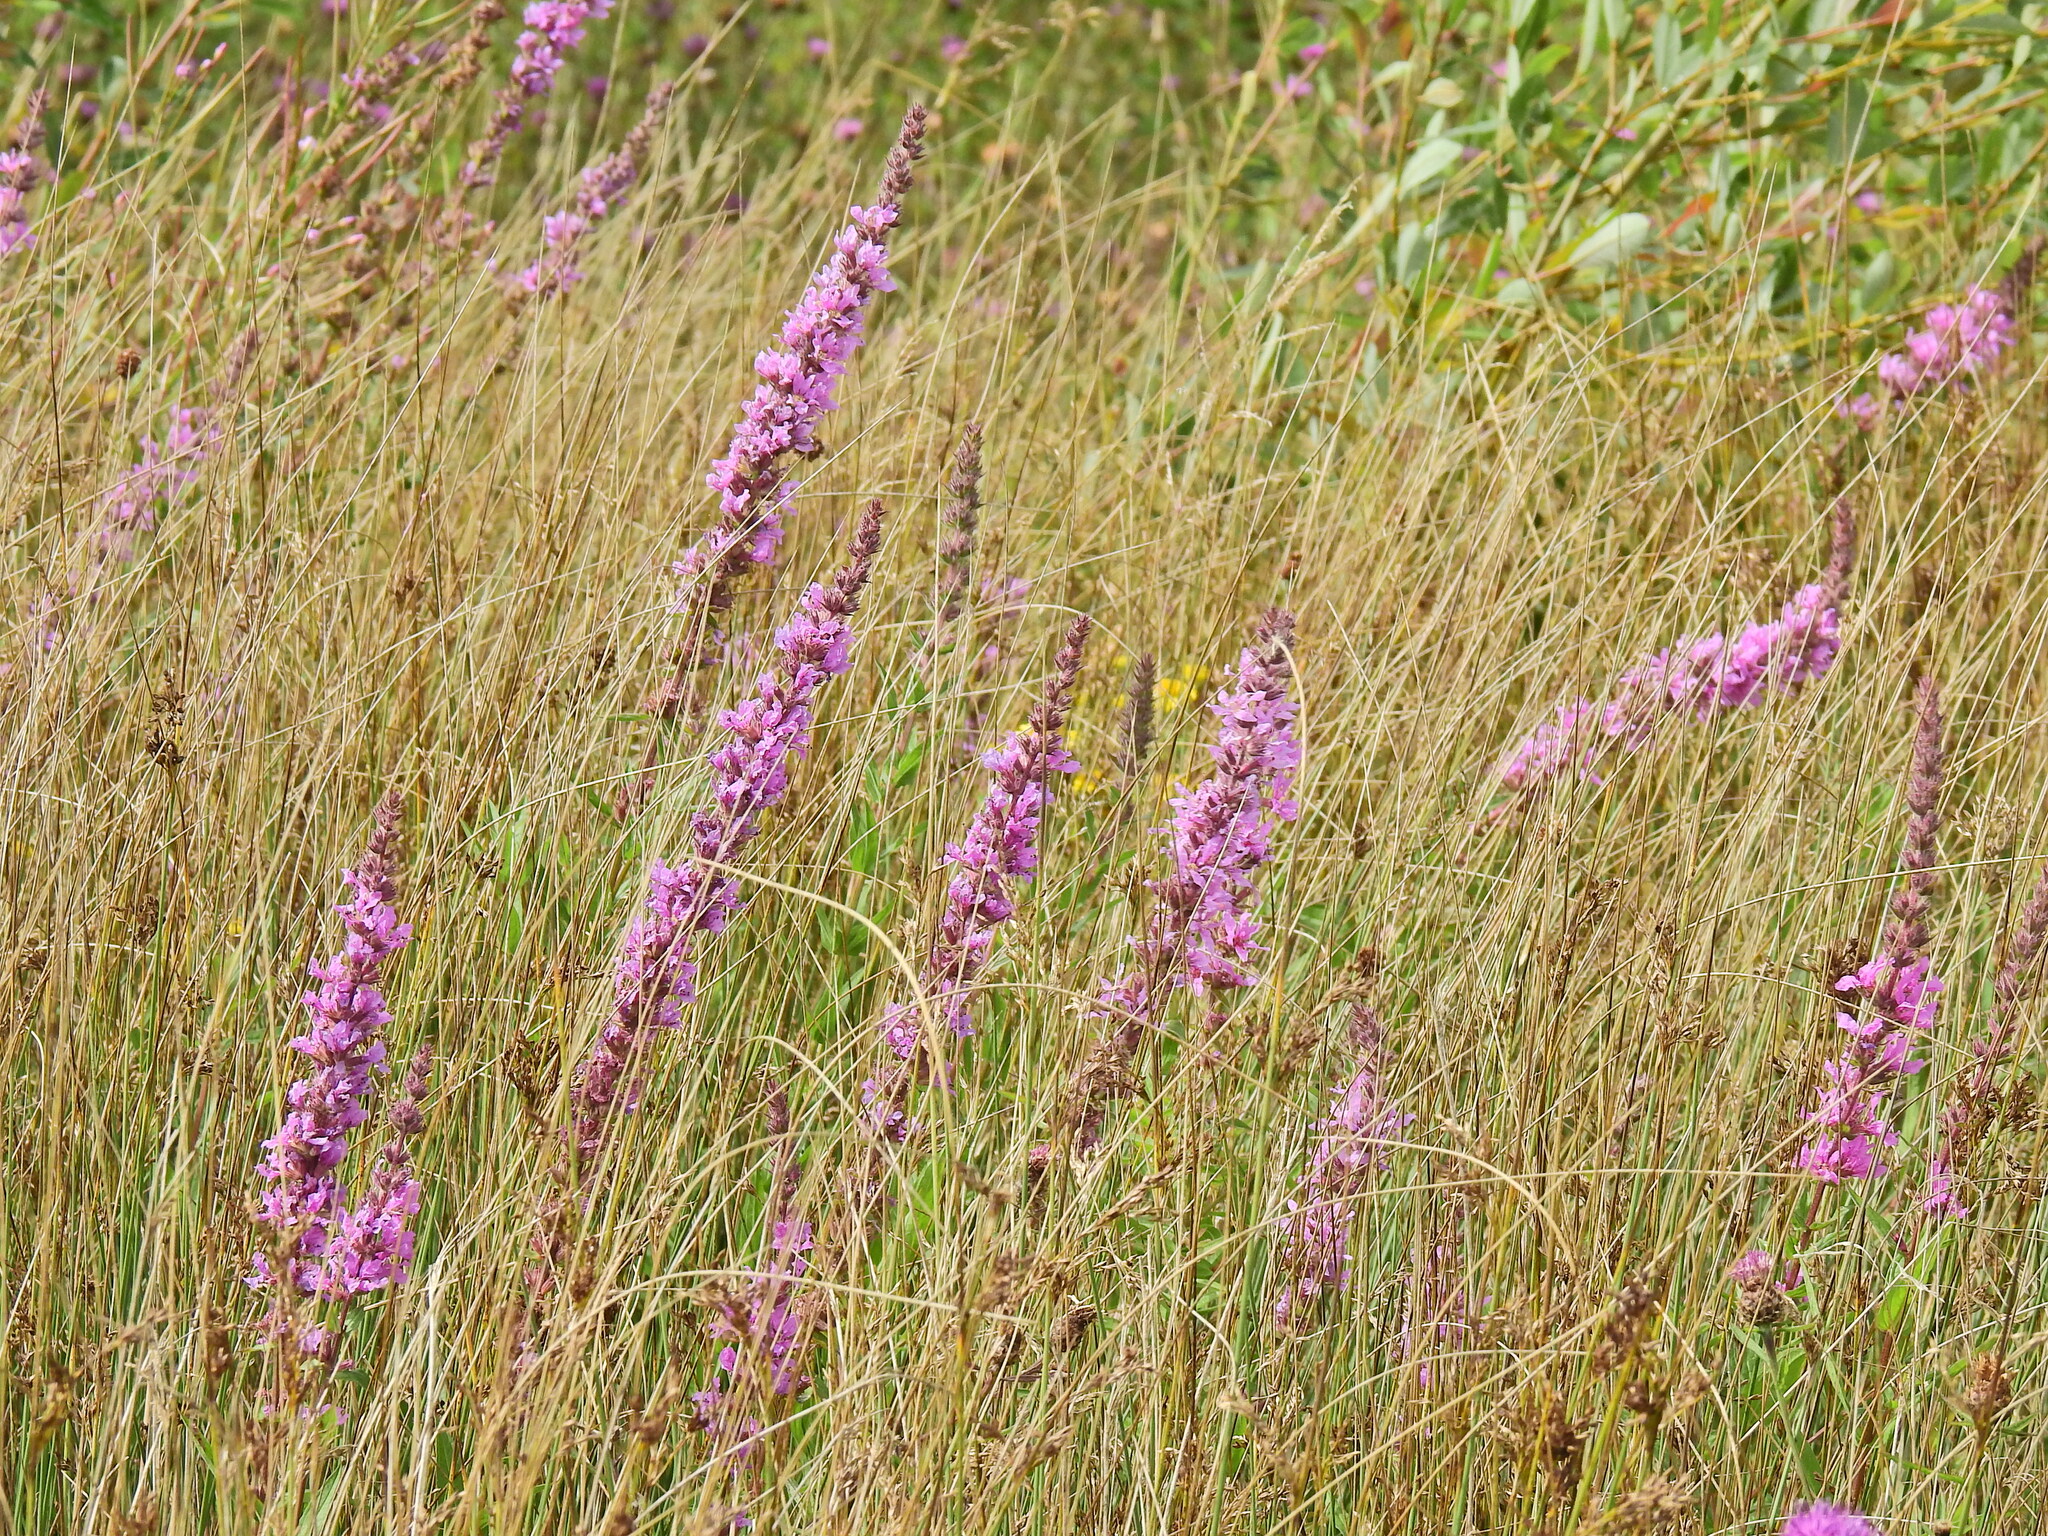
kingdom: Plantae
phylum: Tracheophyta
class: Magnoliopsida
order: Myrtales
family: Lythraceae
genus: Lythrum
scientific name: Lythrum salicaria
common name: Purple loosestrife
